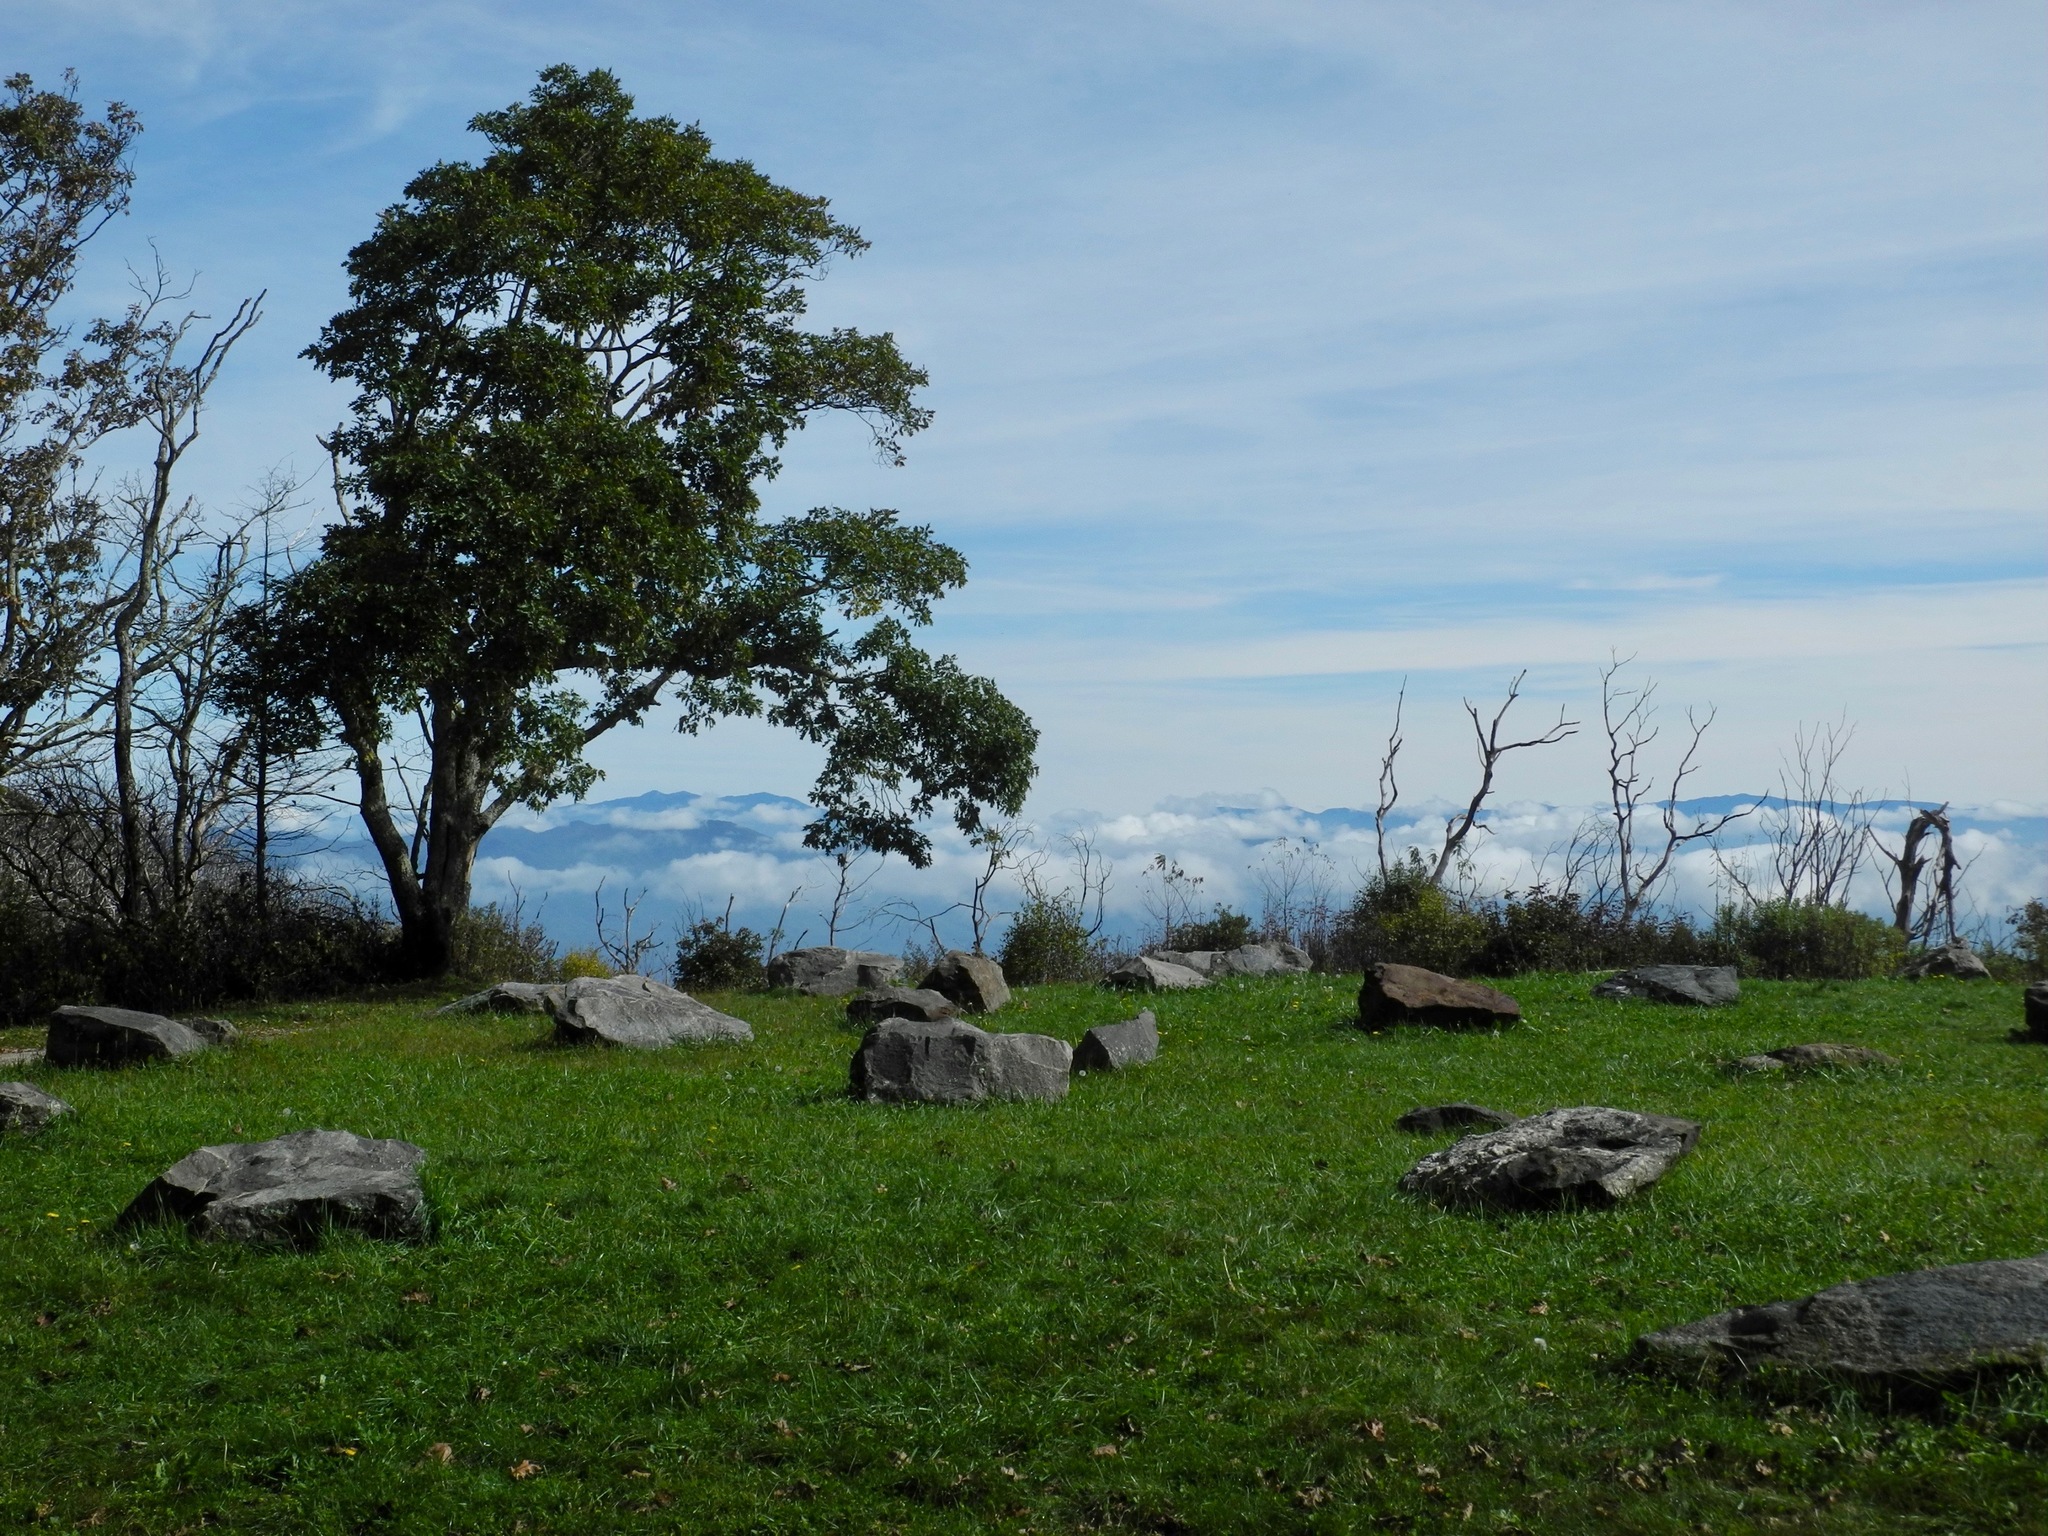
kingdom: Plantae
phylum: Tracheophyta
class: Magnoliopsida
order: Fagales
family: Fagaceae
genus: Quercus
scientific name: Quercus rubra
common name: Red oak
